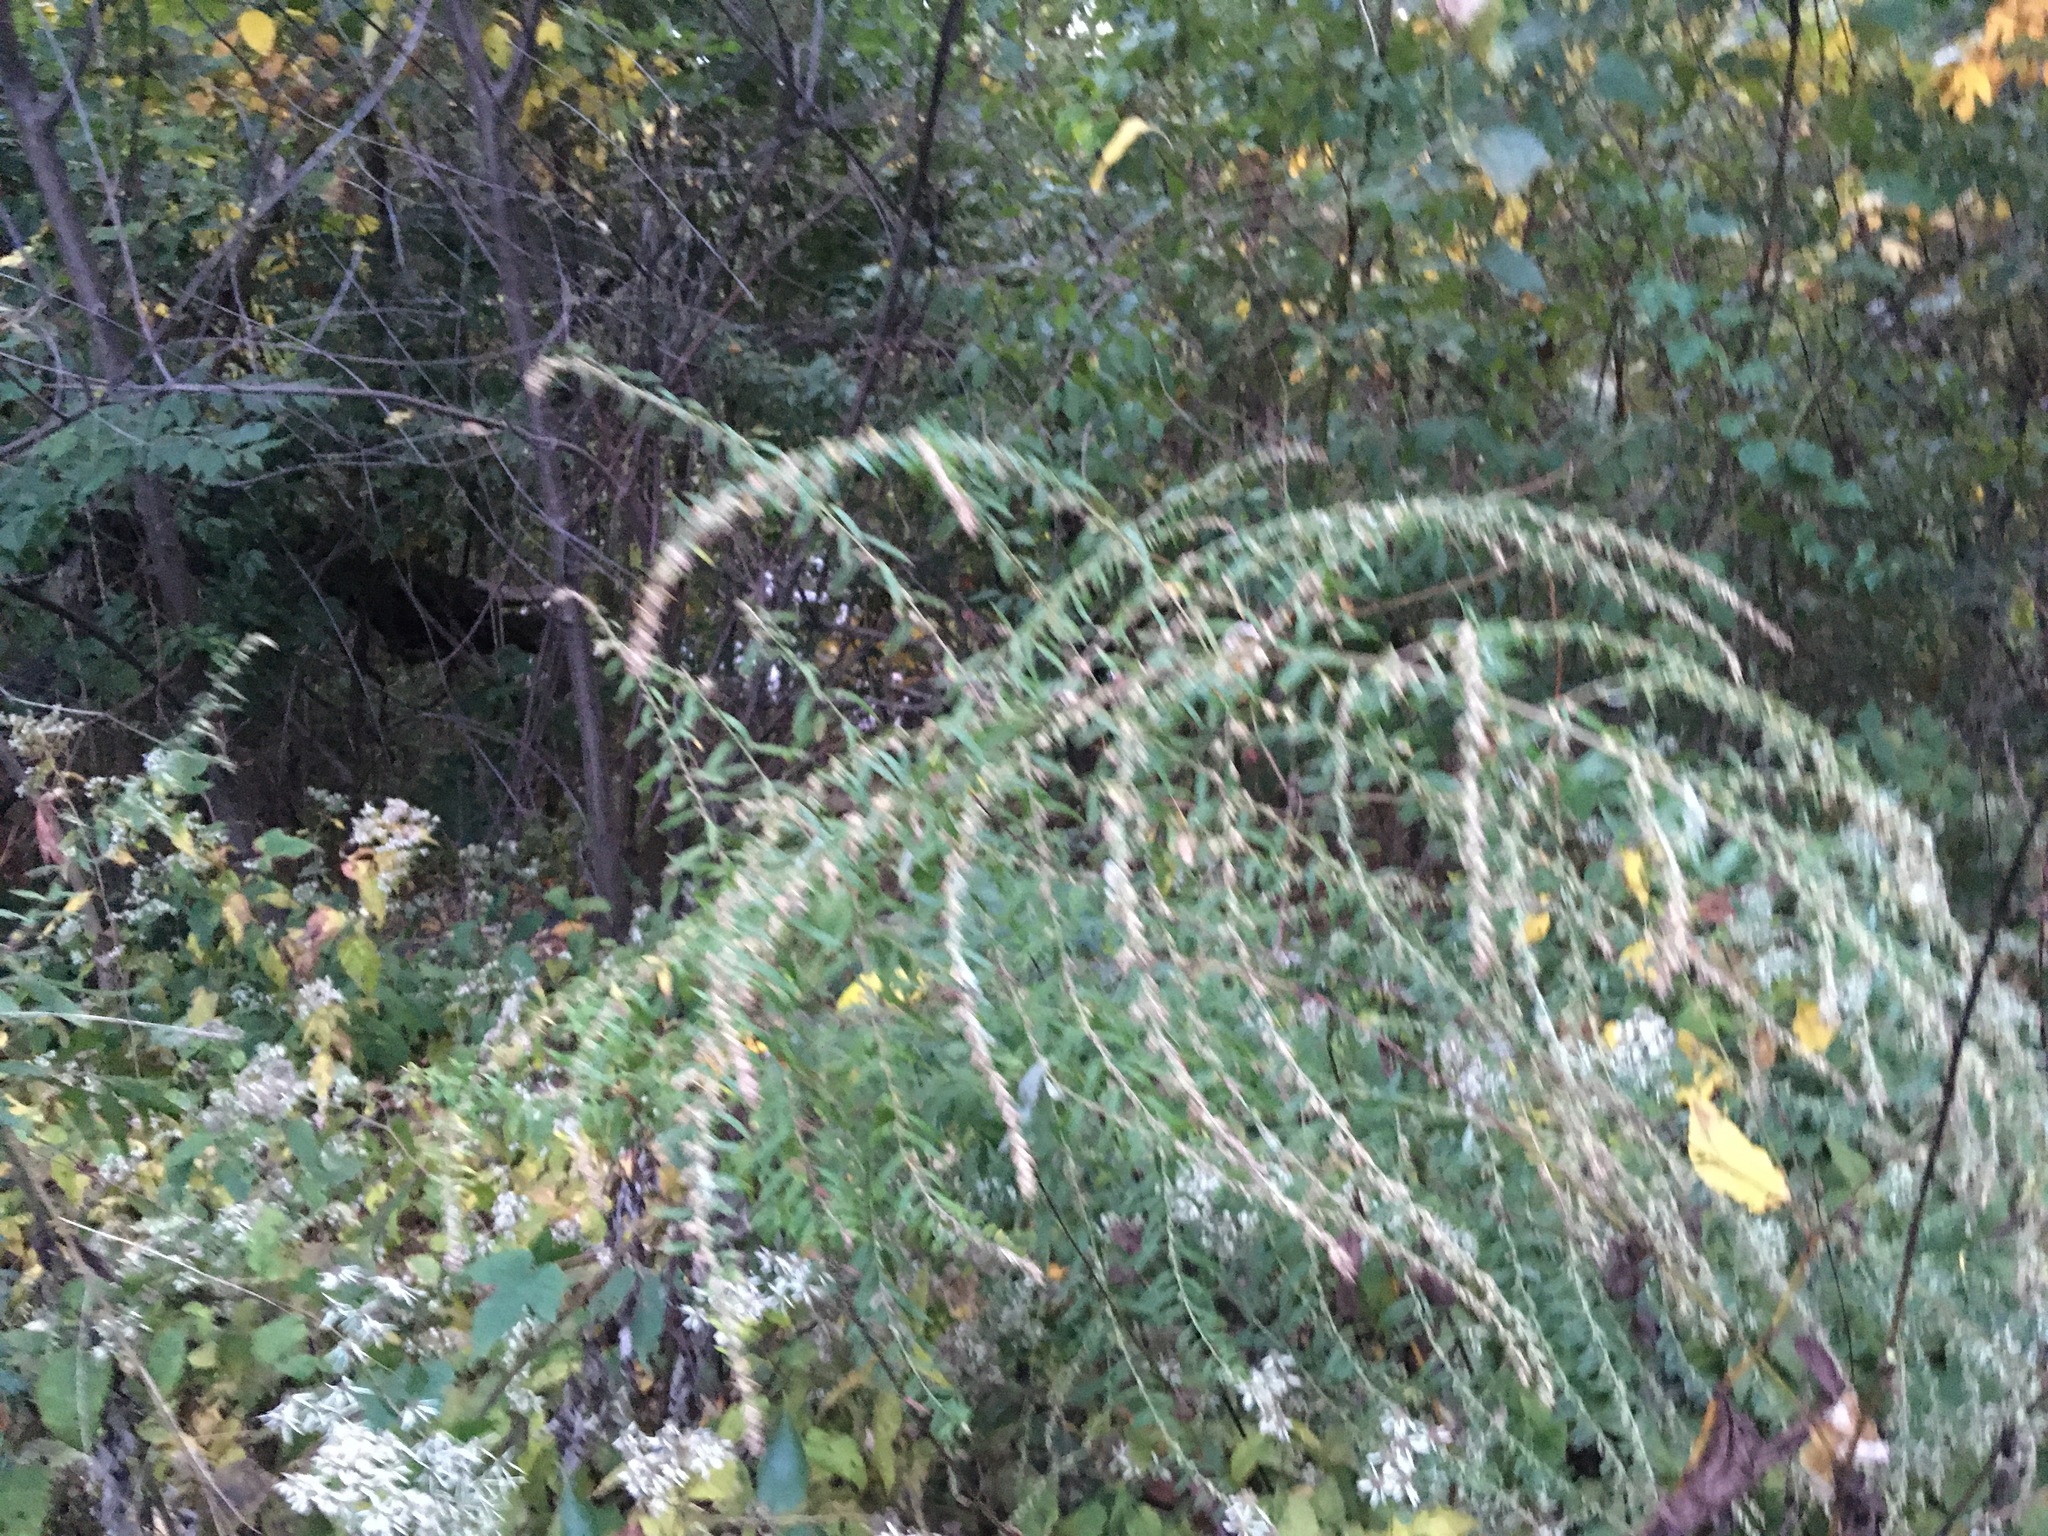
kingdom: Plantae
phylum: Tracheophyta
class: Magnoliopsida
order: Asterales
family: Asteraceae
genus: Artemisia
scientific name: Artemisia vulgaris
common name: Mugwort
